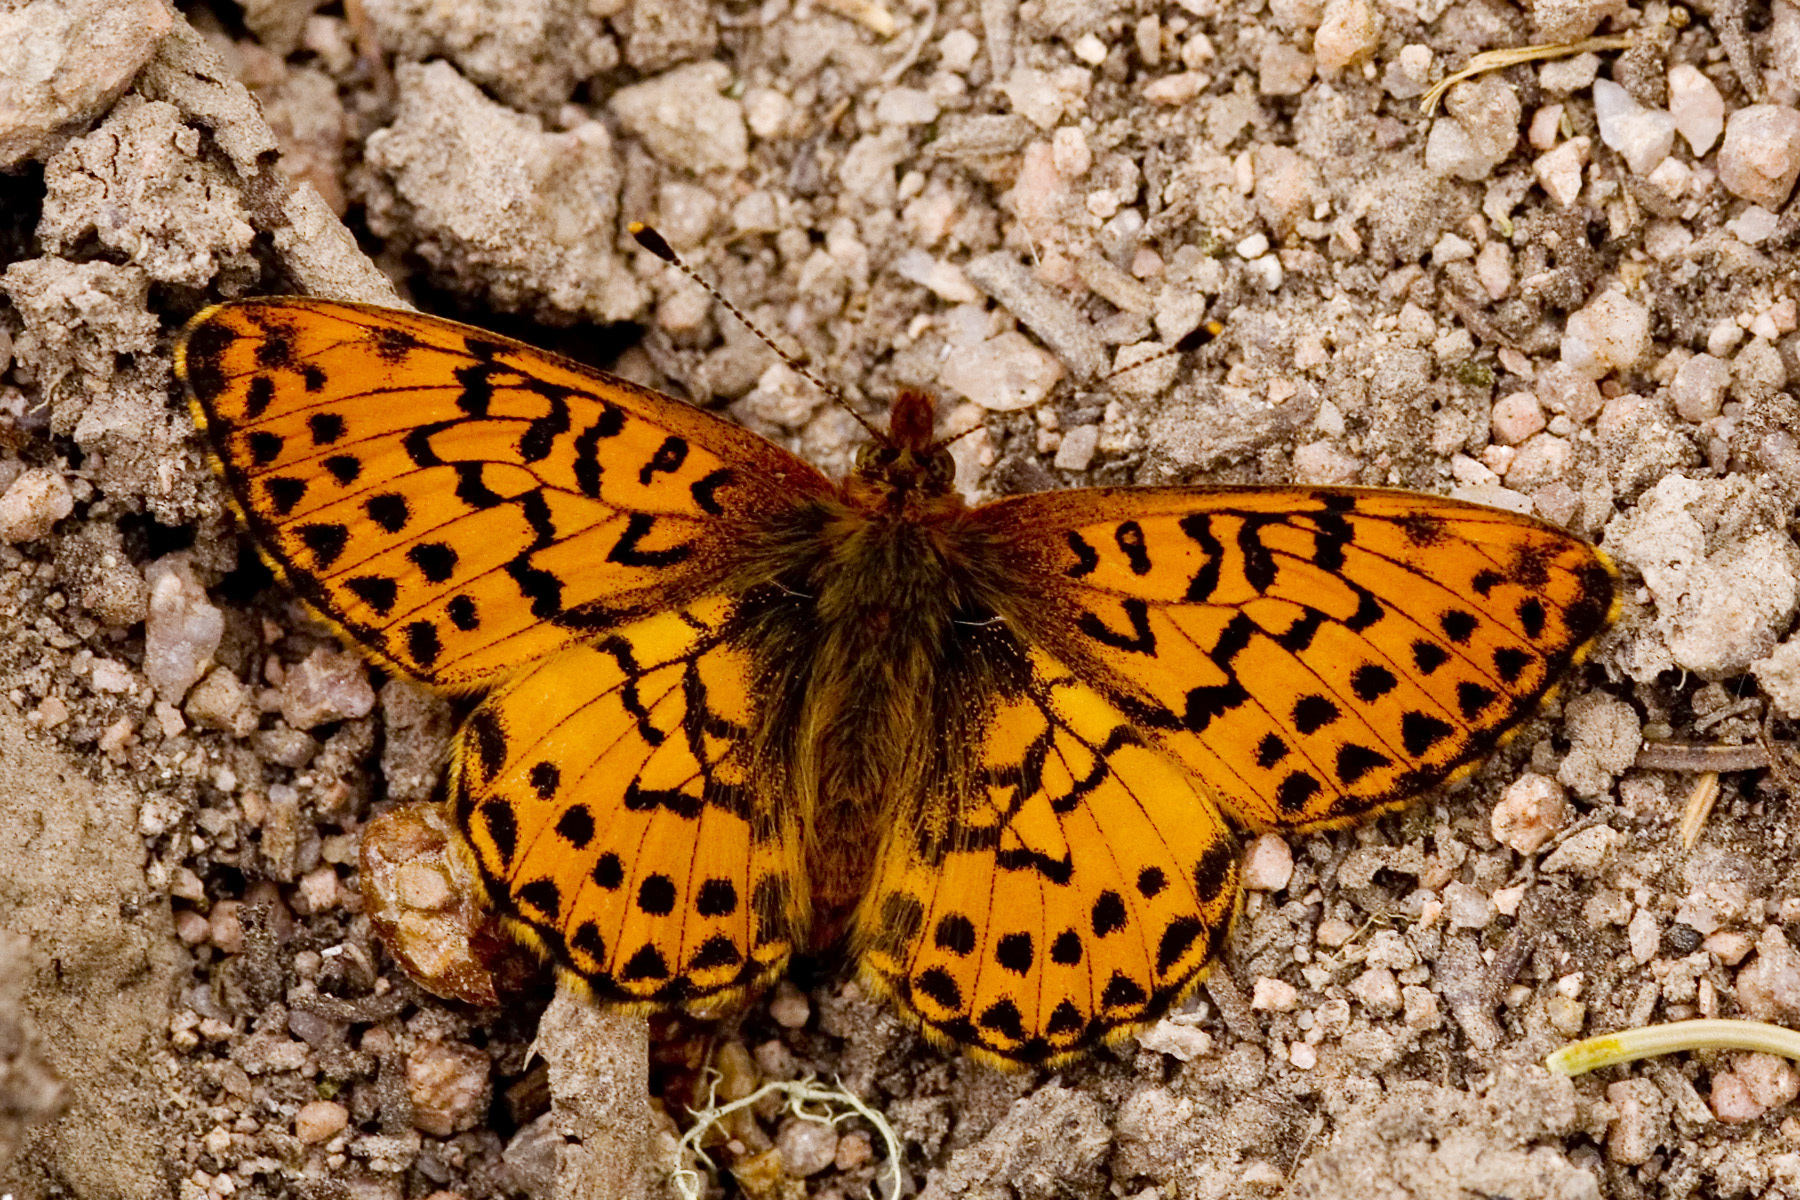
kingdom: Animalia
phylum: Arthropoda
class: Insecta
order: Lepidoptera
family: Nymphalidae
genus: Boloria
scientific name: Boloria chariclea
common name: Arctic fritillary
